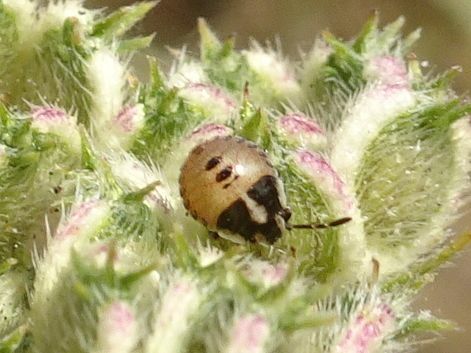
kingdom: Animalia
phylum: Arthropoda
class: Insecta
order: Hemiptera
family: Pentatomidae
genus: Graphosoma
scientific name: Graphosoma italicum
